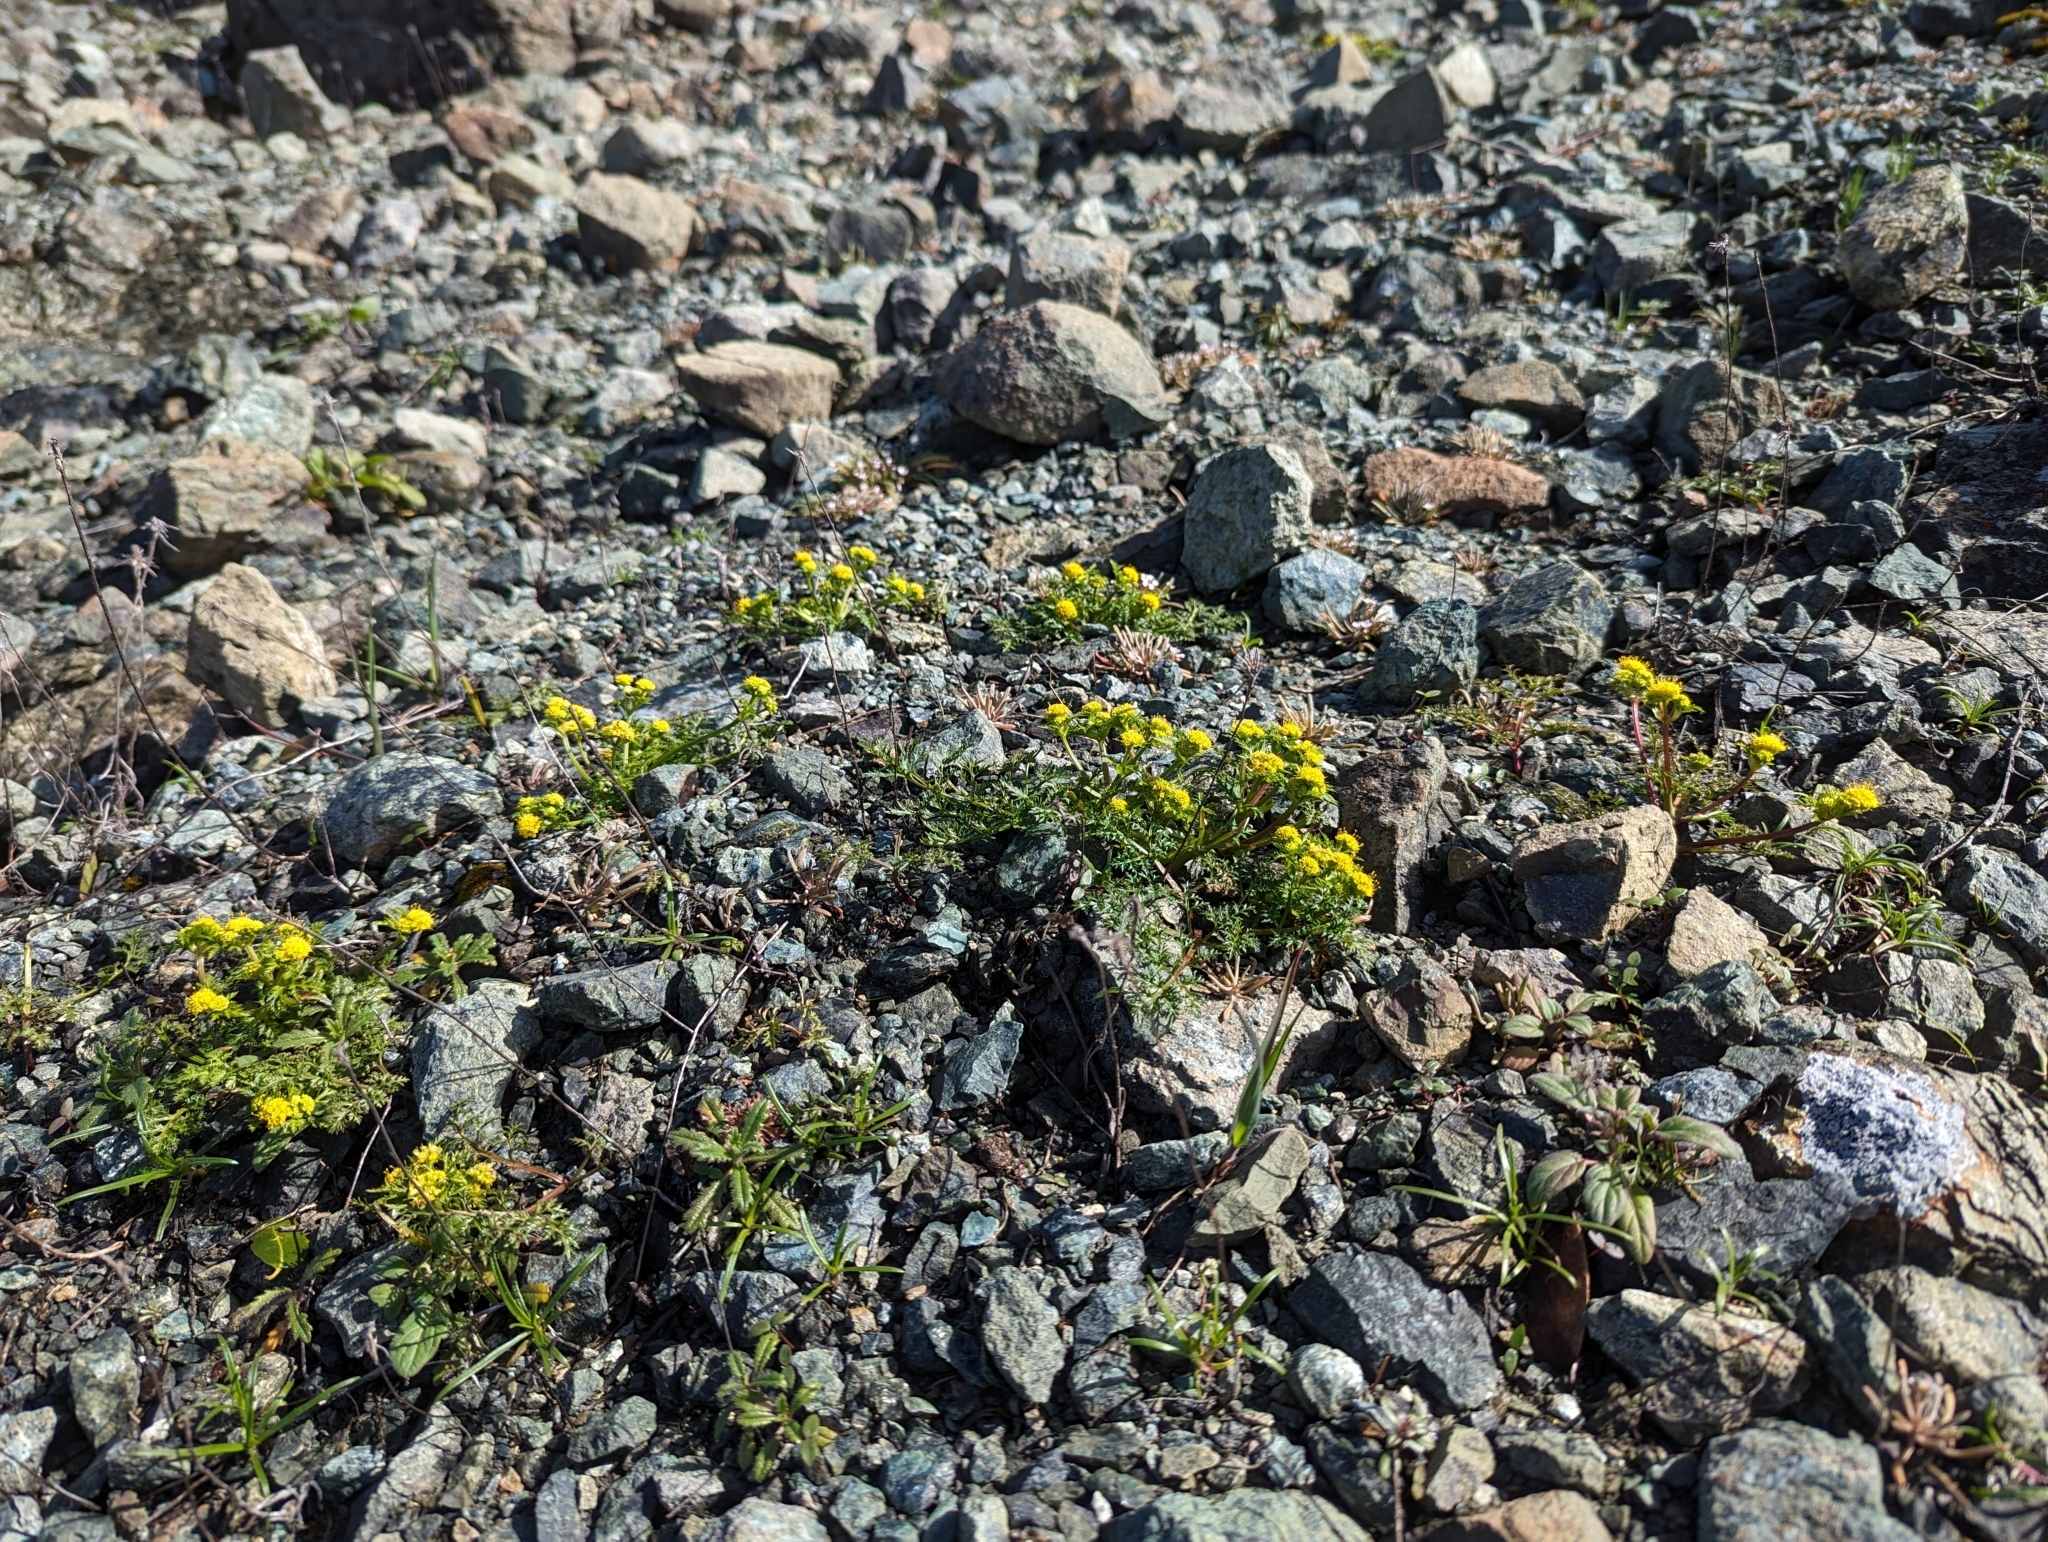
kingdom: Plantae
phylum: Tracheophyta
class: Magnoliopsida
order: Apiales
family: Apiaceae
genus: Sanicula
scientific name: Sanicula tuberosa
